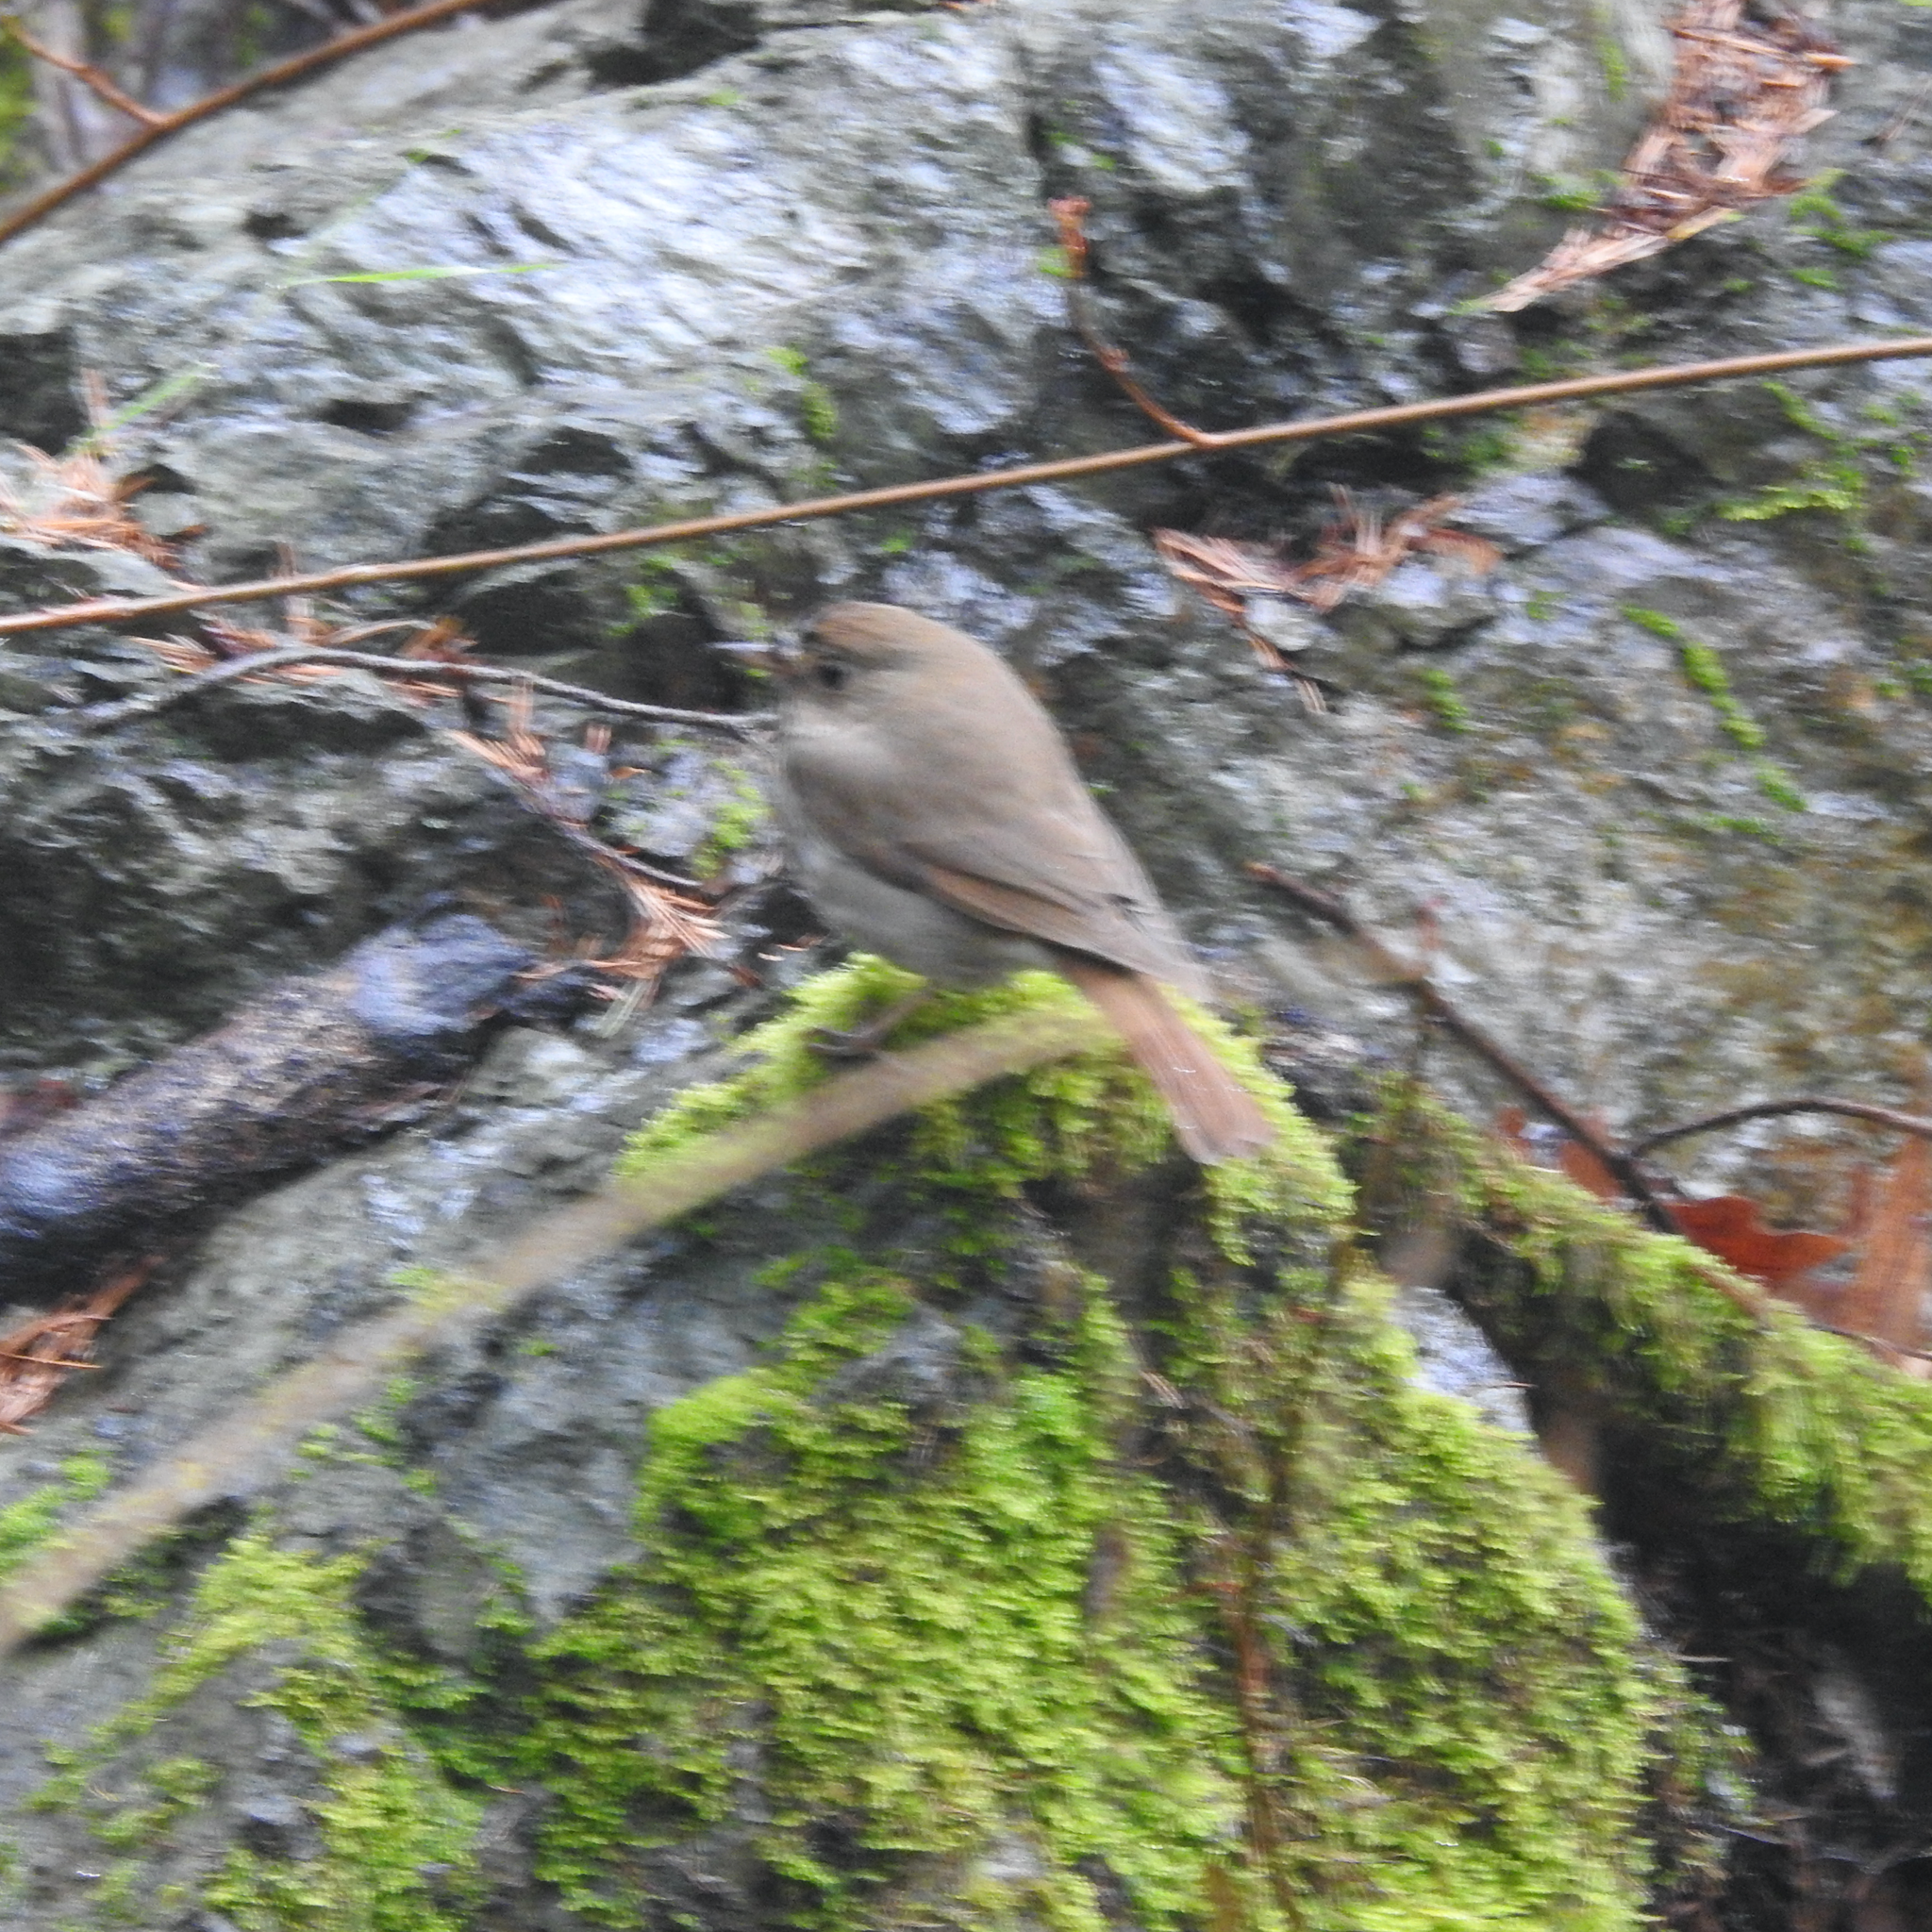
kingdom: Animalia
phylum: Chordata
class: Aves
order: Passeriformes
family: Turdidae
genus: Catharus
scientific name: Catharus guttatus
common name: Hermit thrush
